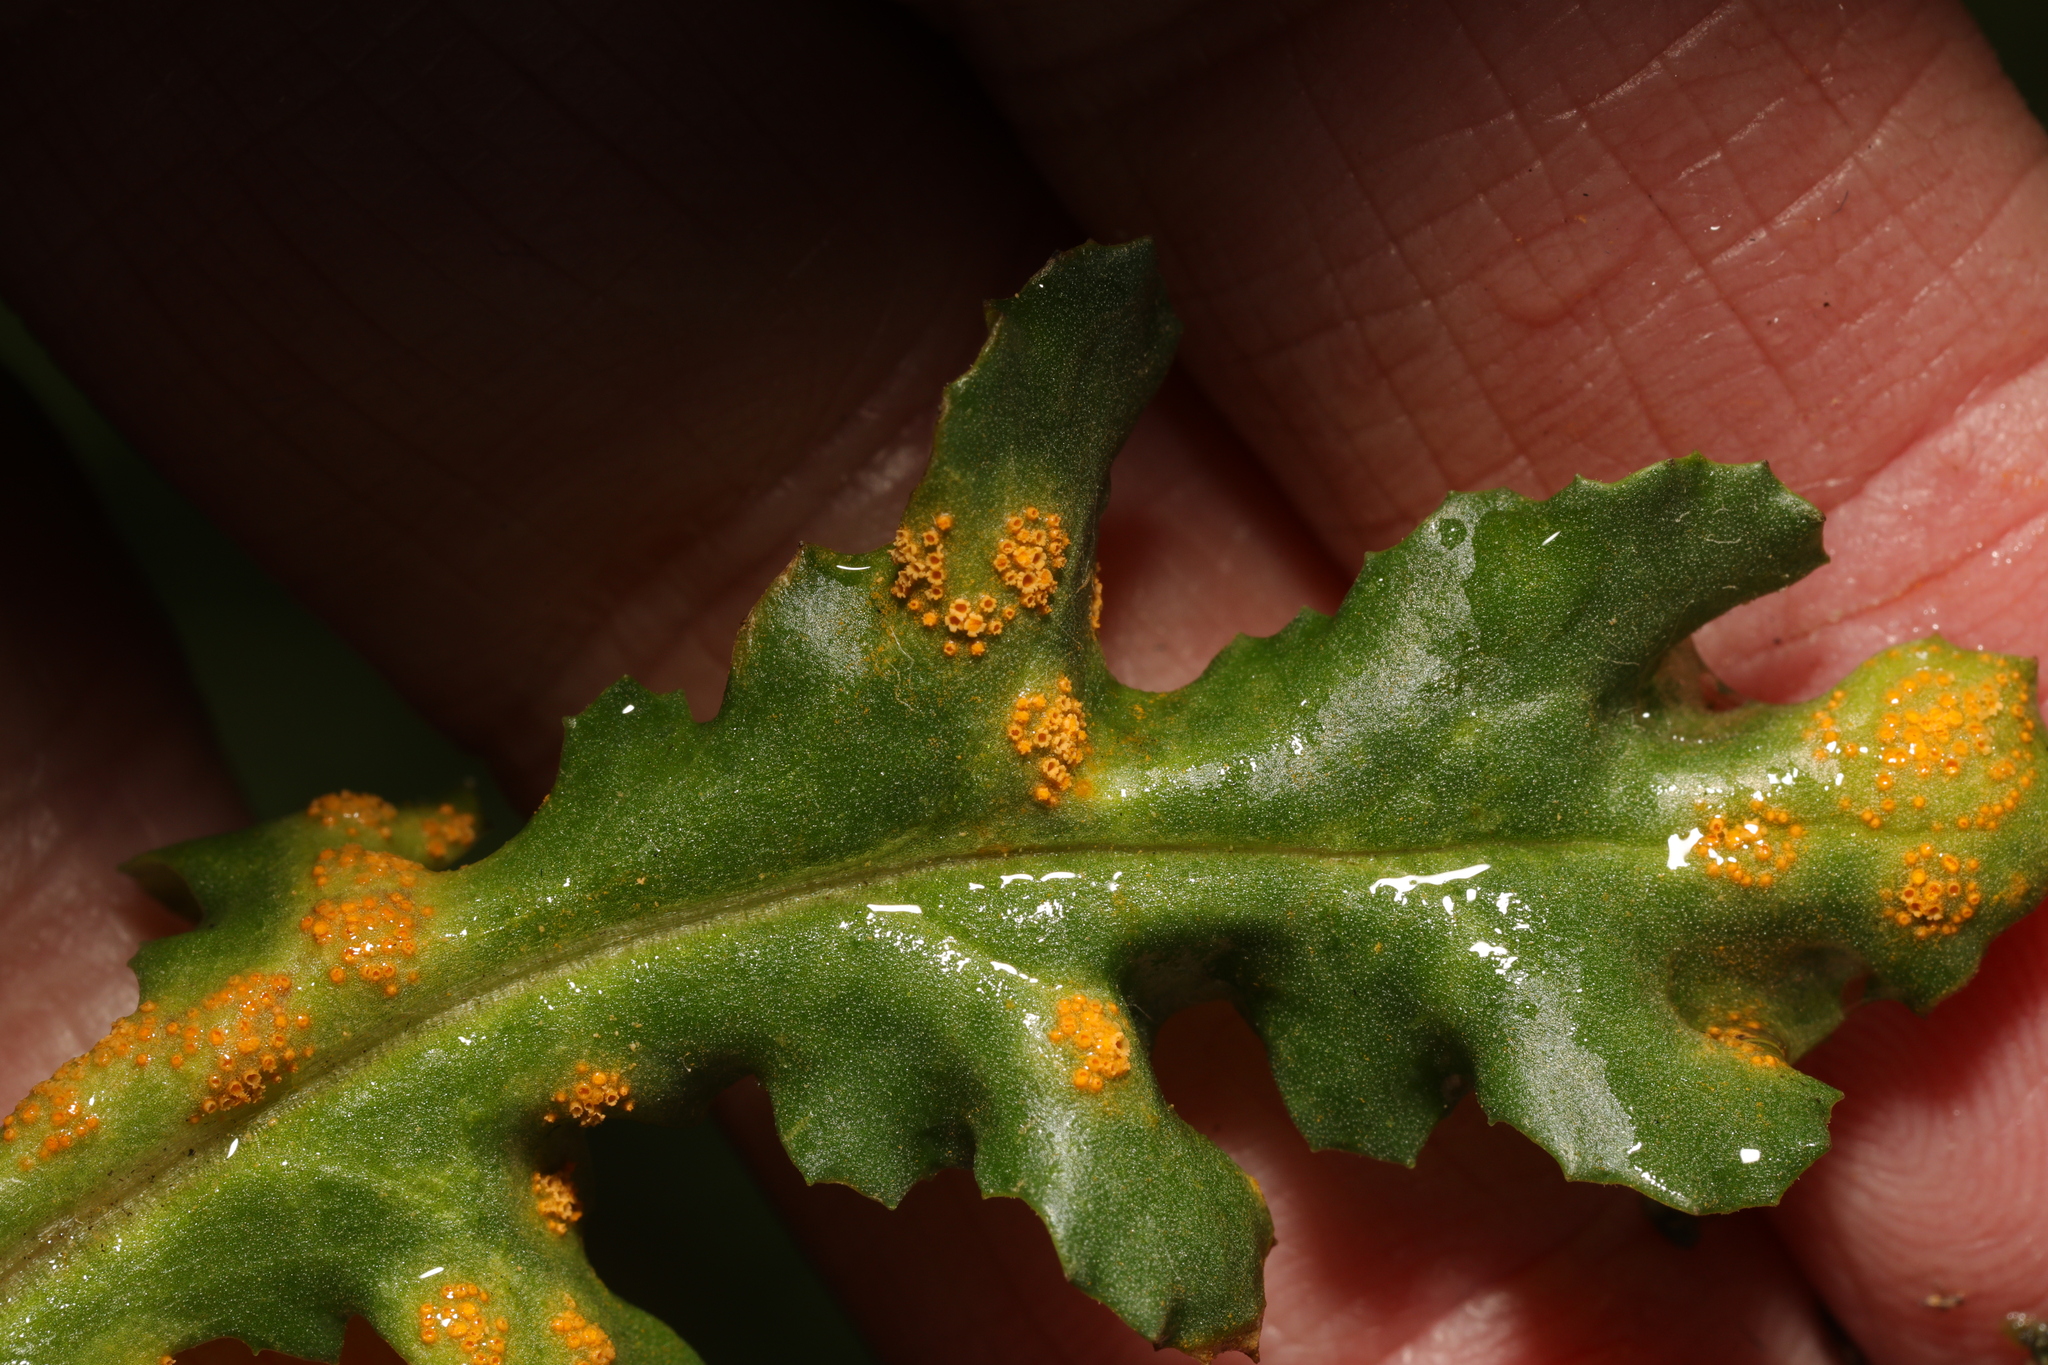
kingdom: Fungi
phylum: Basidiomycota
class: Pucciniomycetes
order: Pucciniales
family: Pucciniaceae
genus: Puccinia
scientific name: Puccinia lagenophorae
